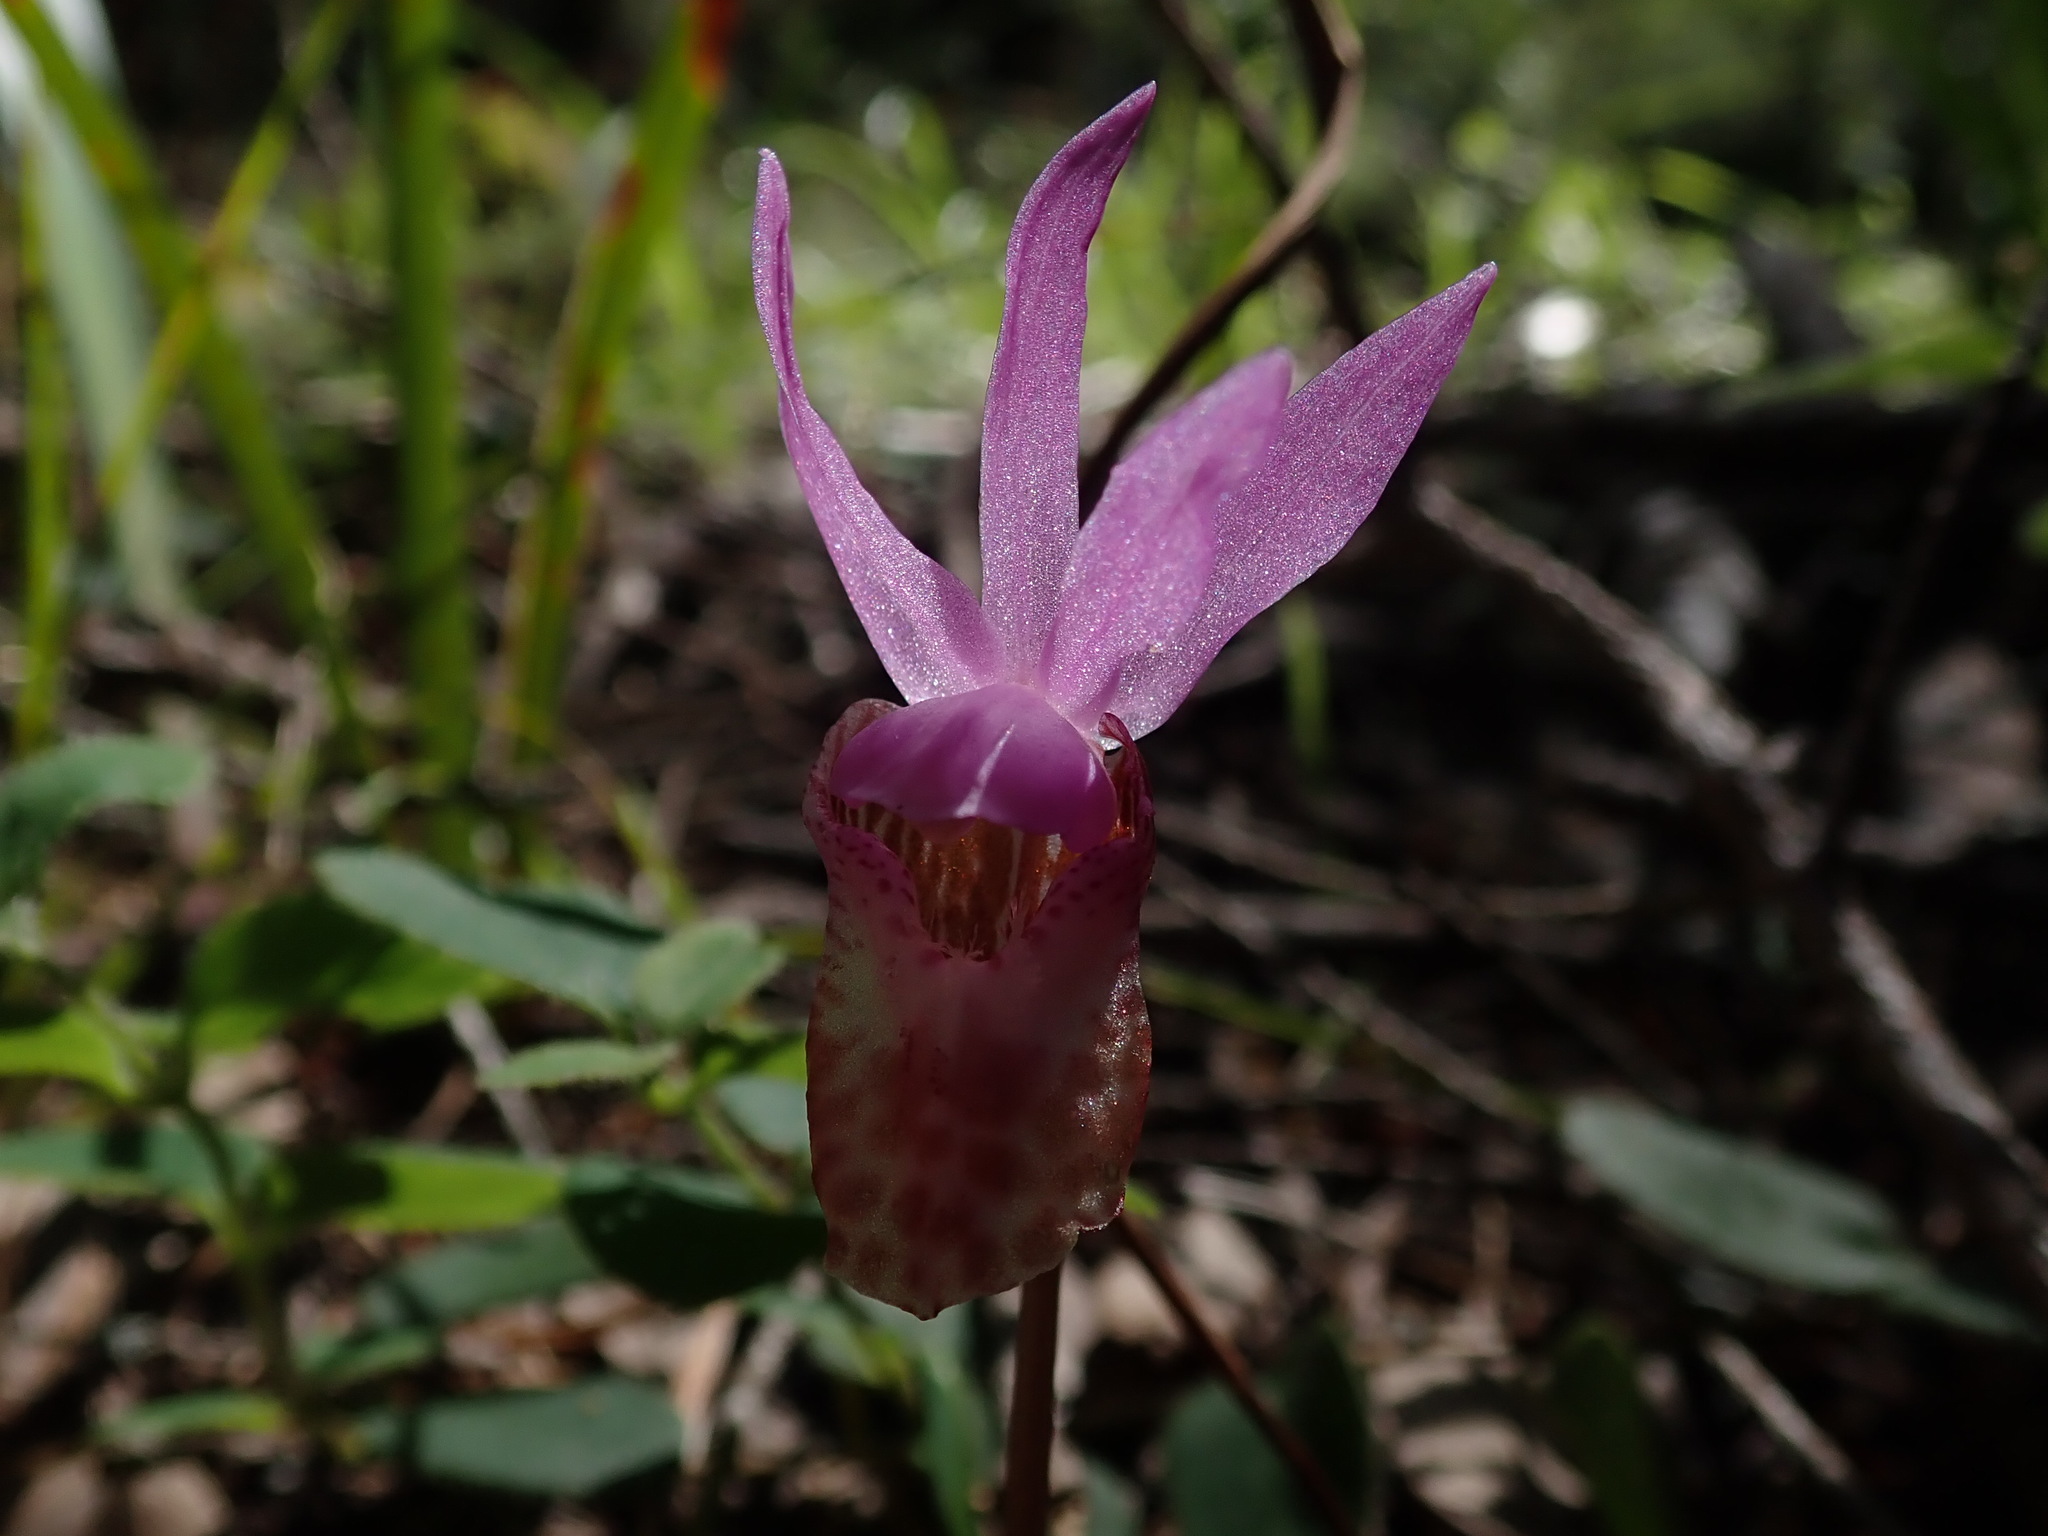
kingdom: Plantae
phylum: Tracheophyta
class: Liliopsida
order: Asparagales
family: Orchidaceae
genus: Calypso
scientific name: Calypso bulbosa
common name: Calypso
